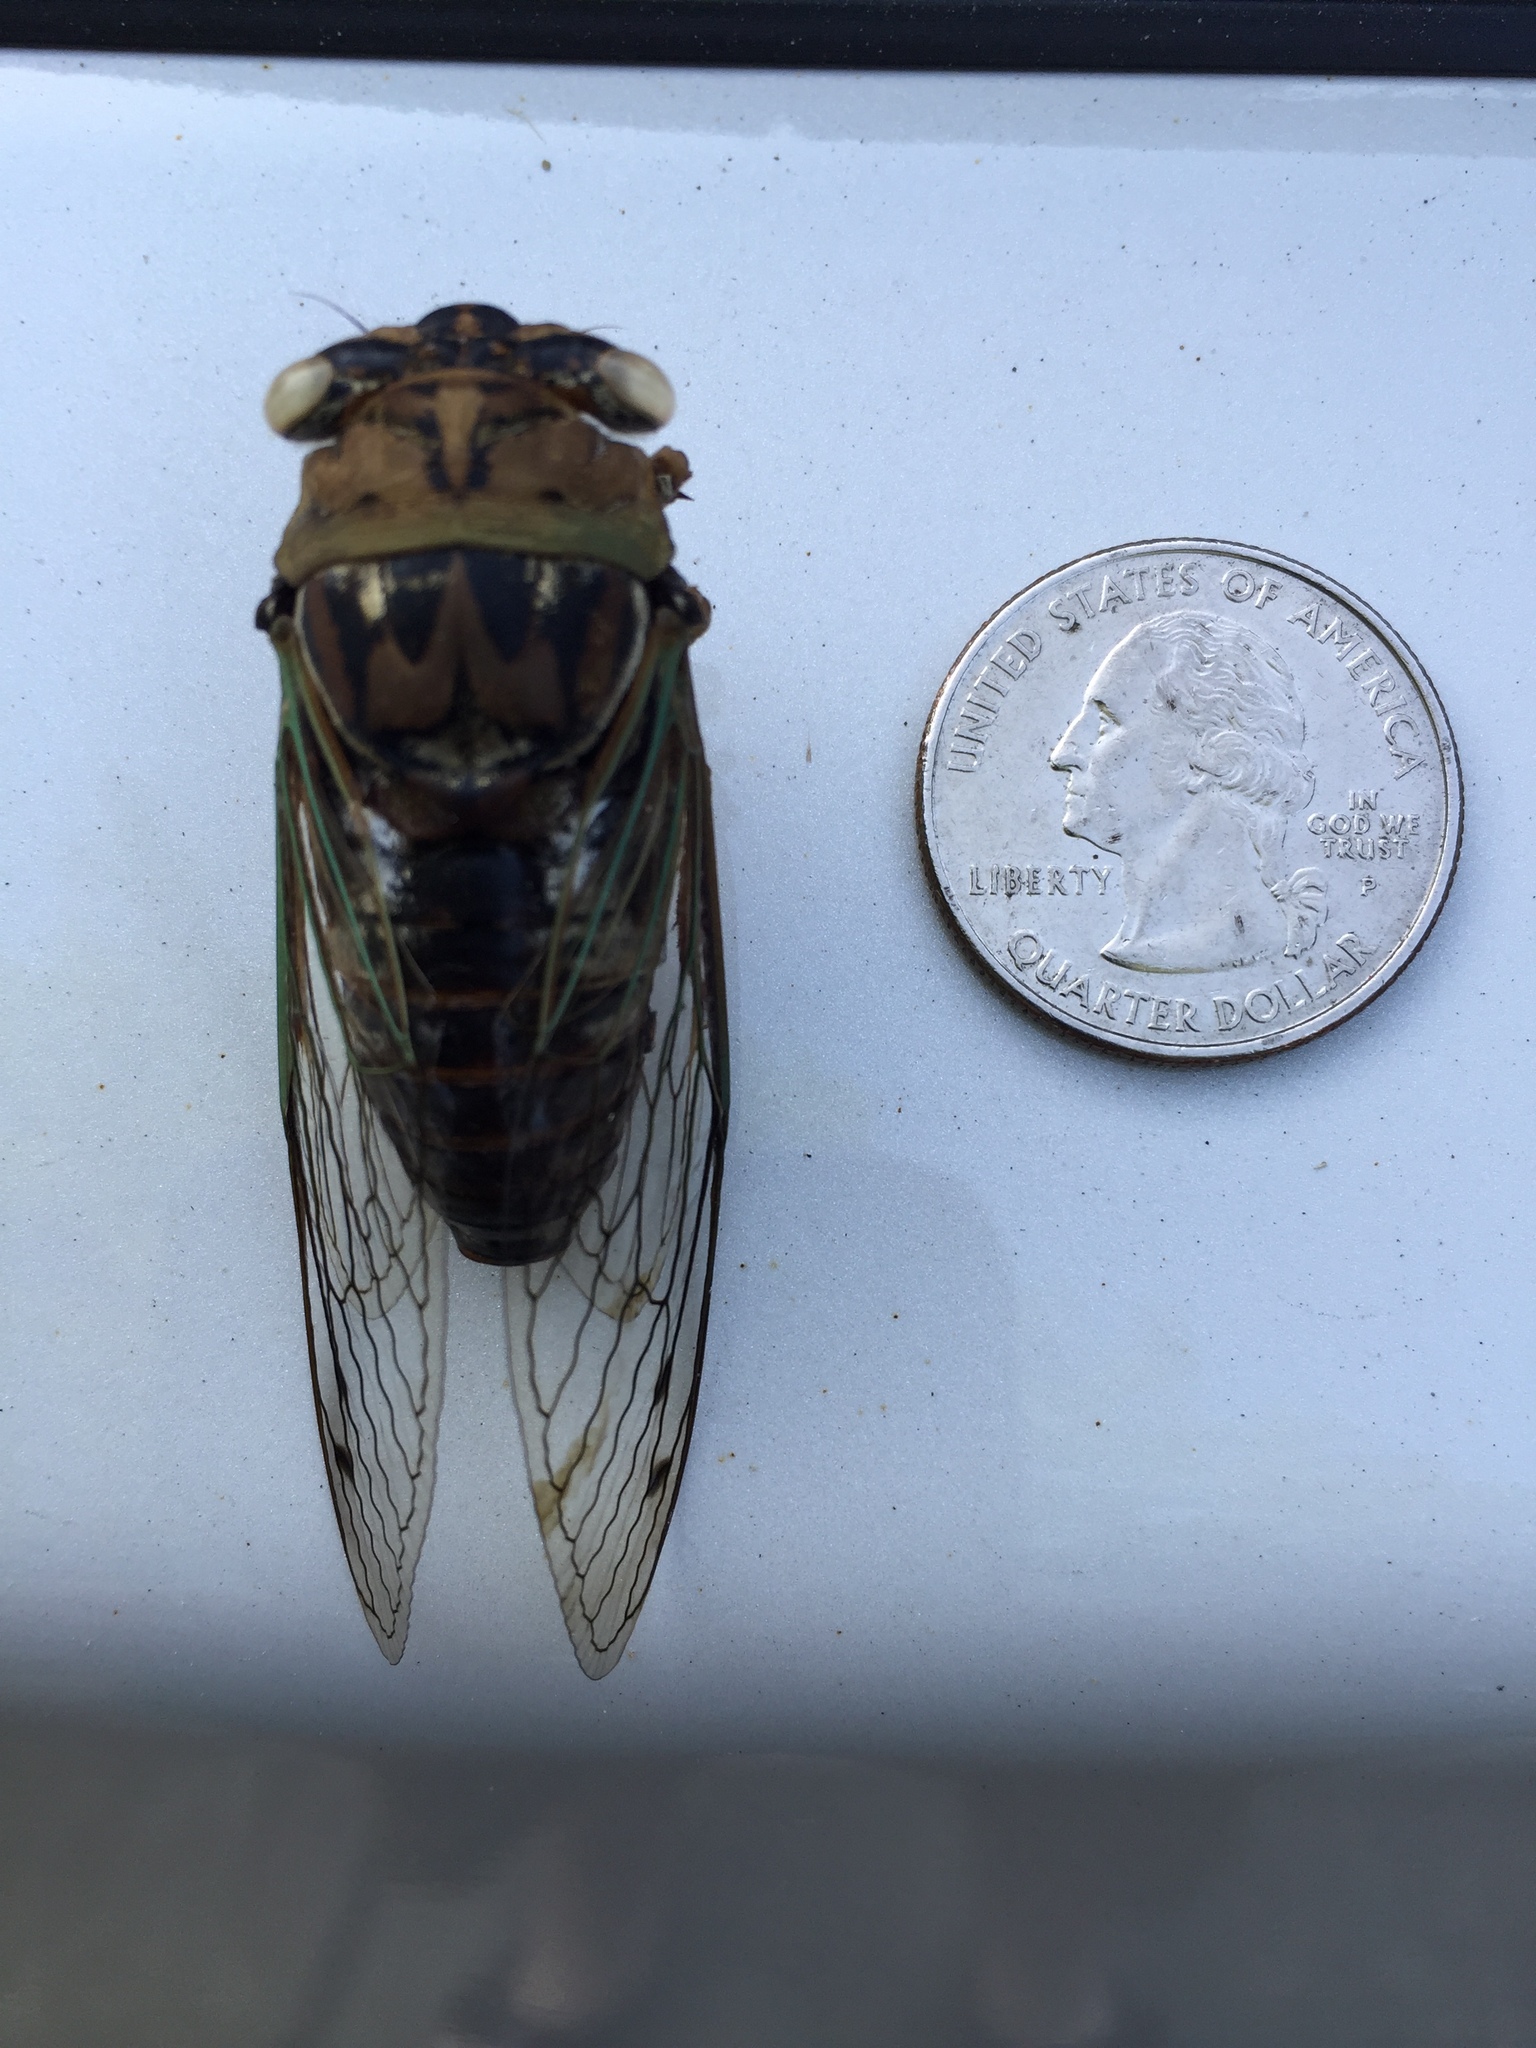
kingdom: Animalia
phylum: Arthropoda
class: Insecta
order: Hemiptera
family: Cicadidae
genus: Megatibicen
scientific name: Megatibicen resh
